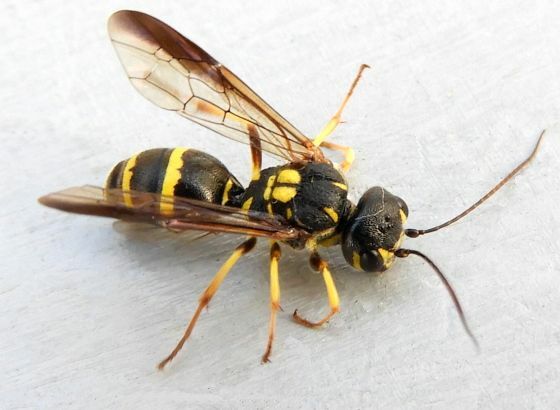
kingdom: Animalia
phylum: Arthropoda
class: Insecta
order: Hymenoptera
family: Trigonalidae
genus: Taeniogonalos
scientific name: Taeniogonalos gundlachii
